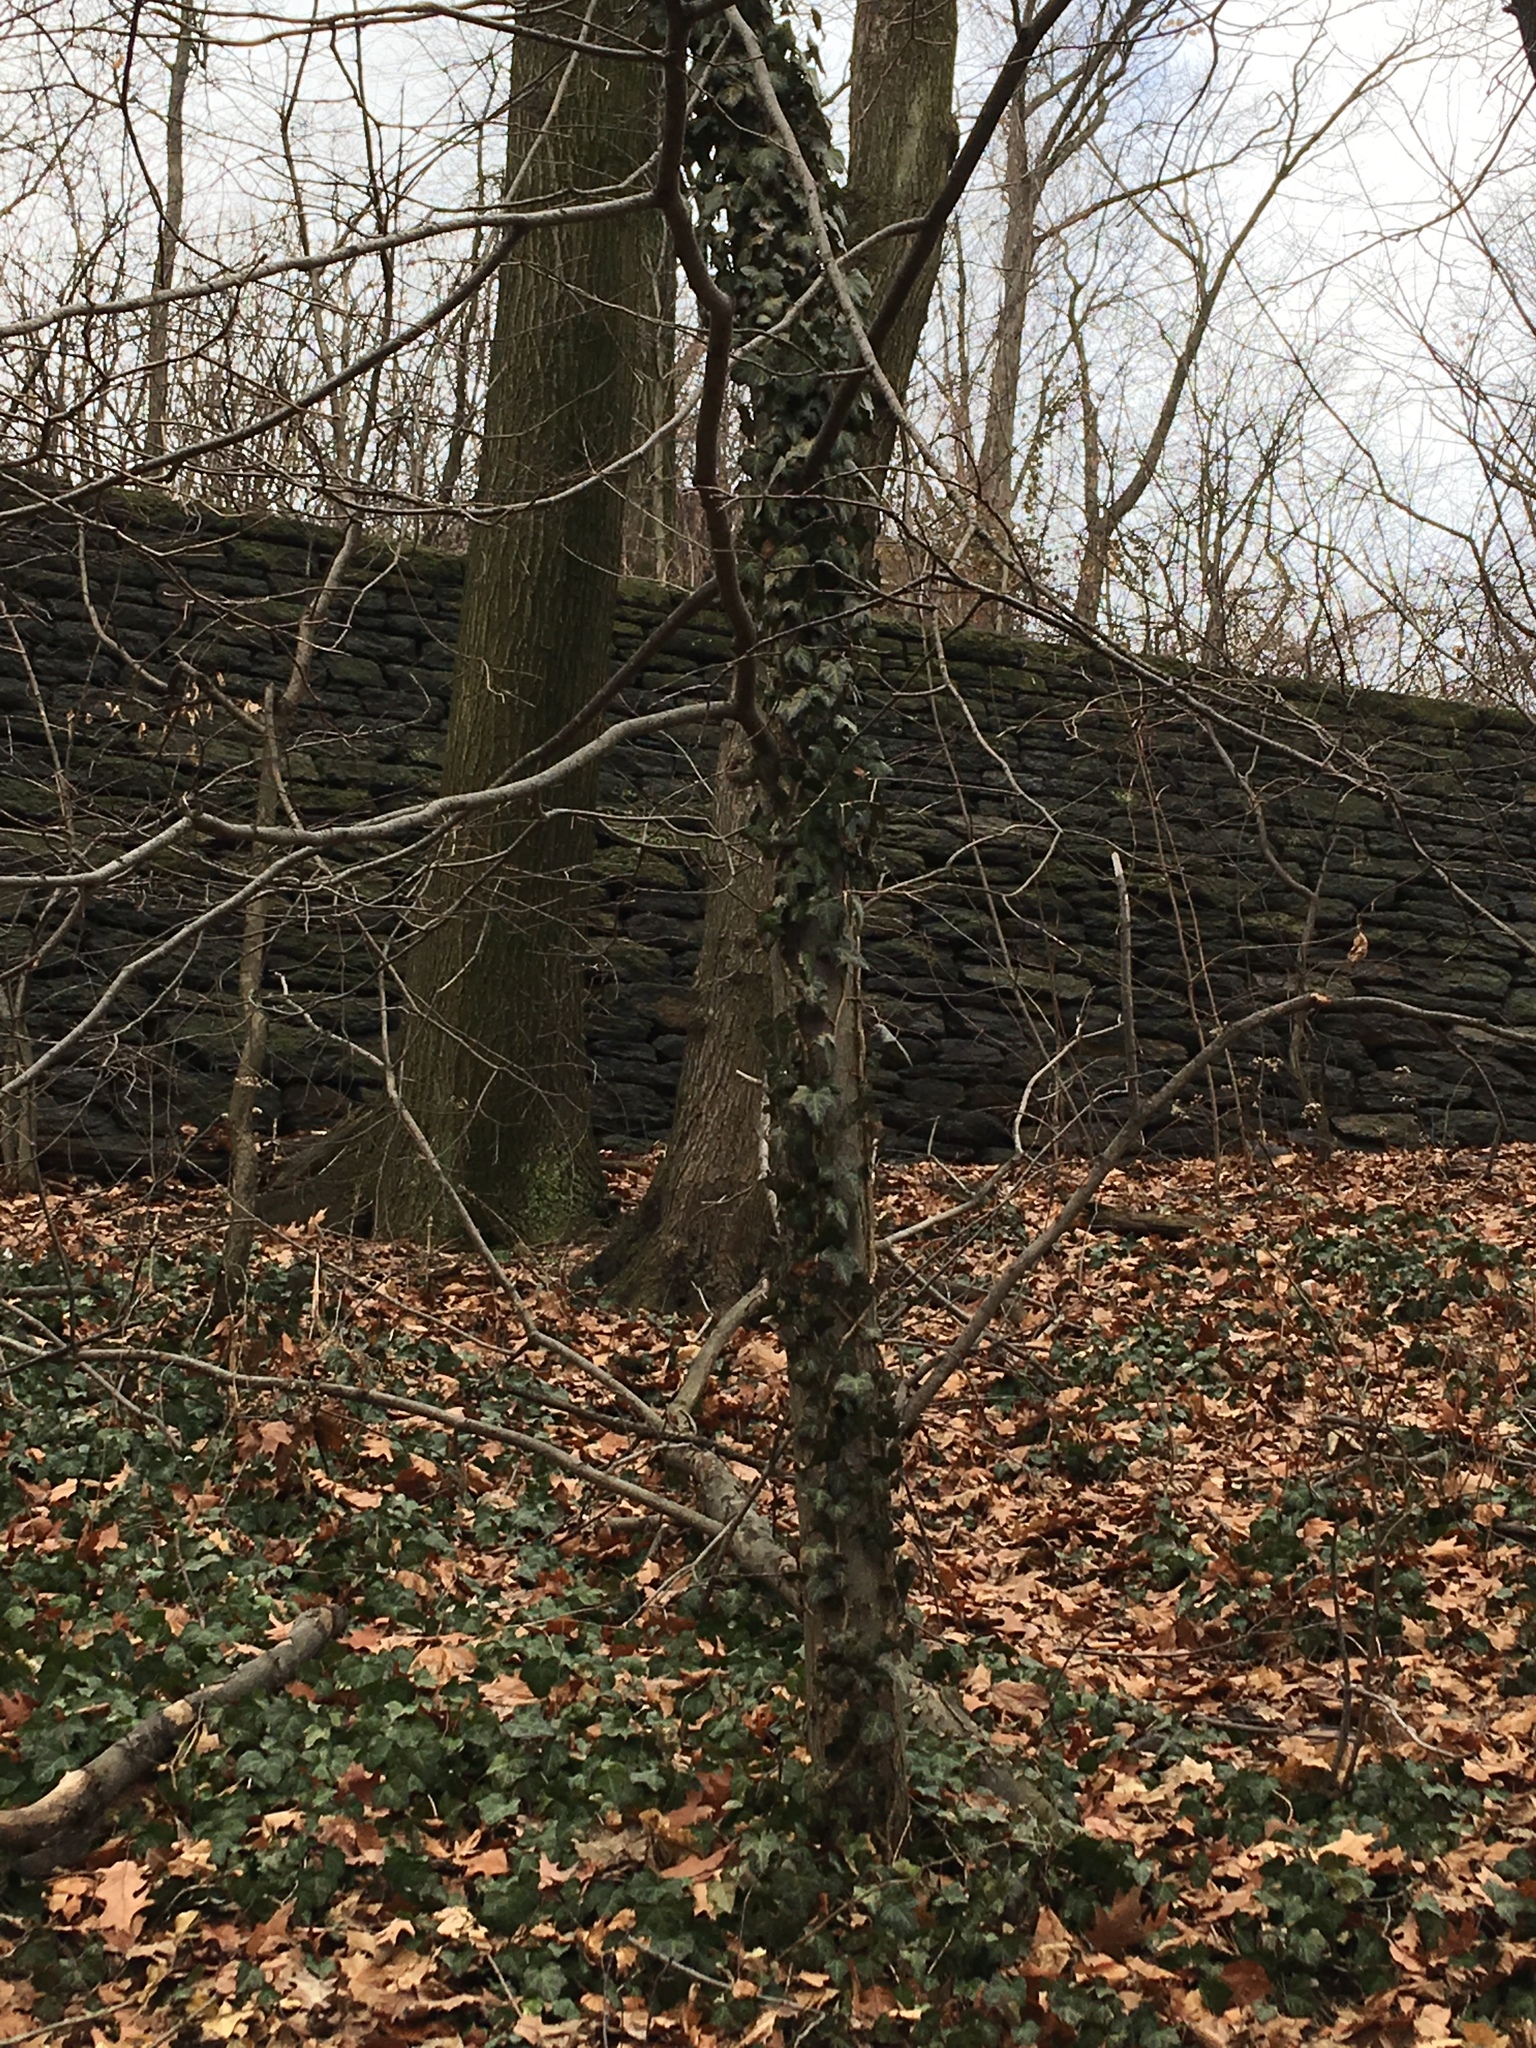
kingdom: Plantae
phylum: Tracheophyta
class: Magnoliopsida
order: Apiales
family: Araliaceae
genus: Hedera
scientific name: Hedera helix
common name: Ivy
